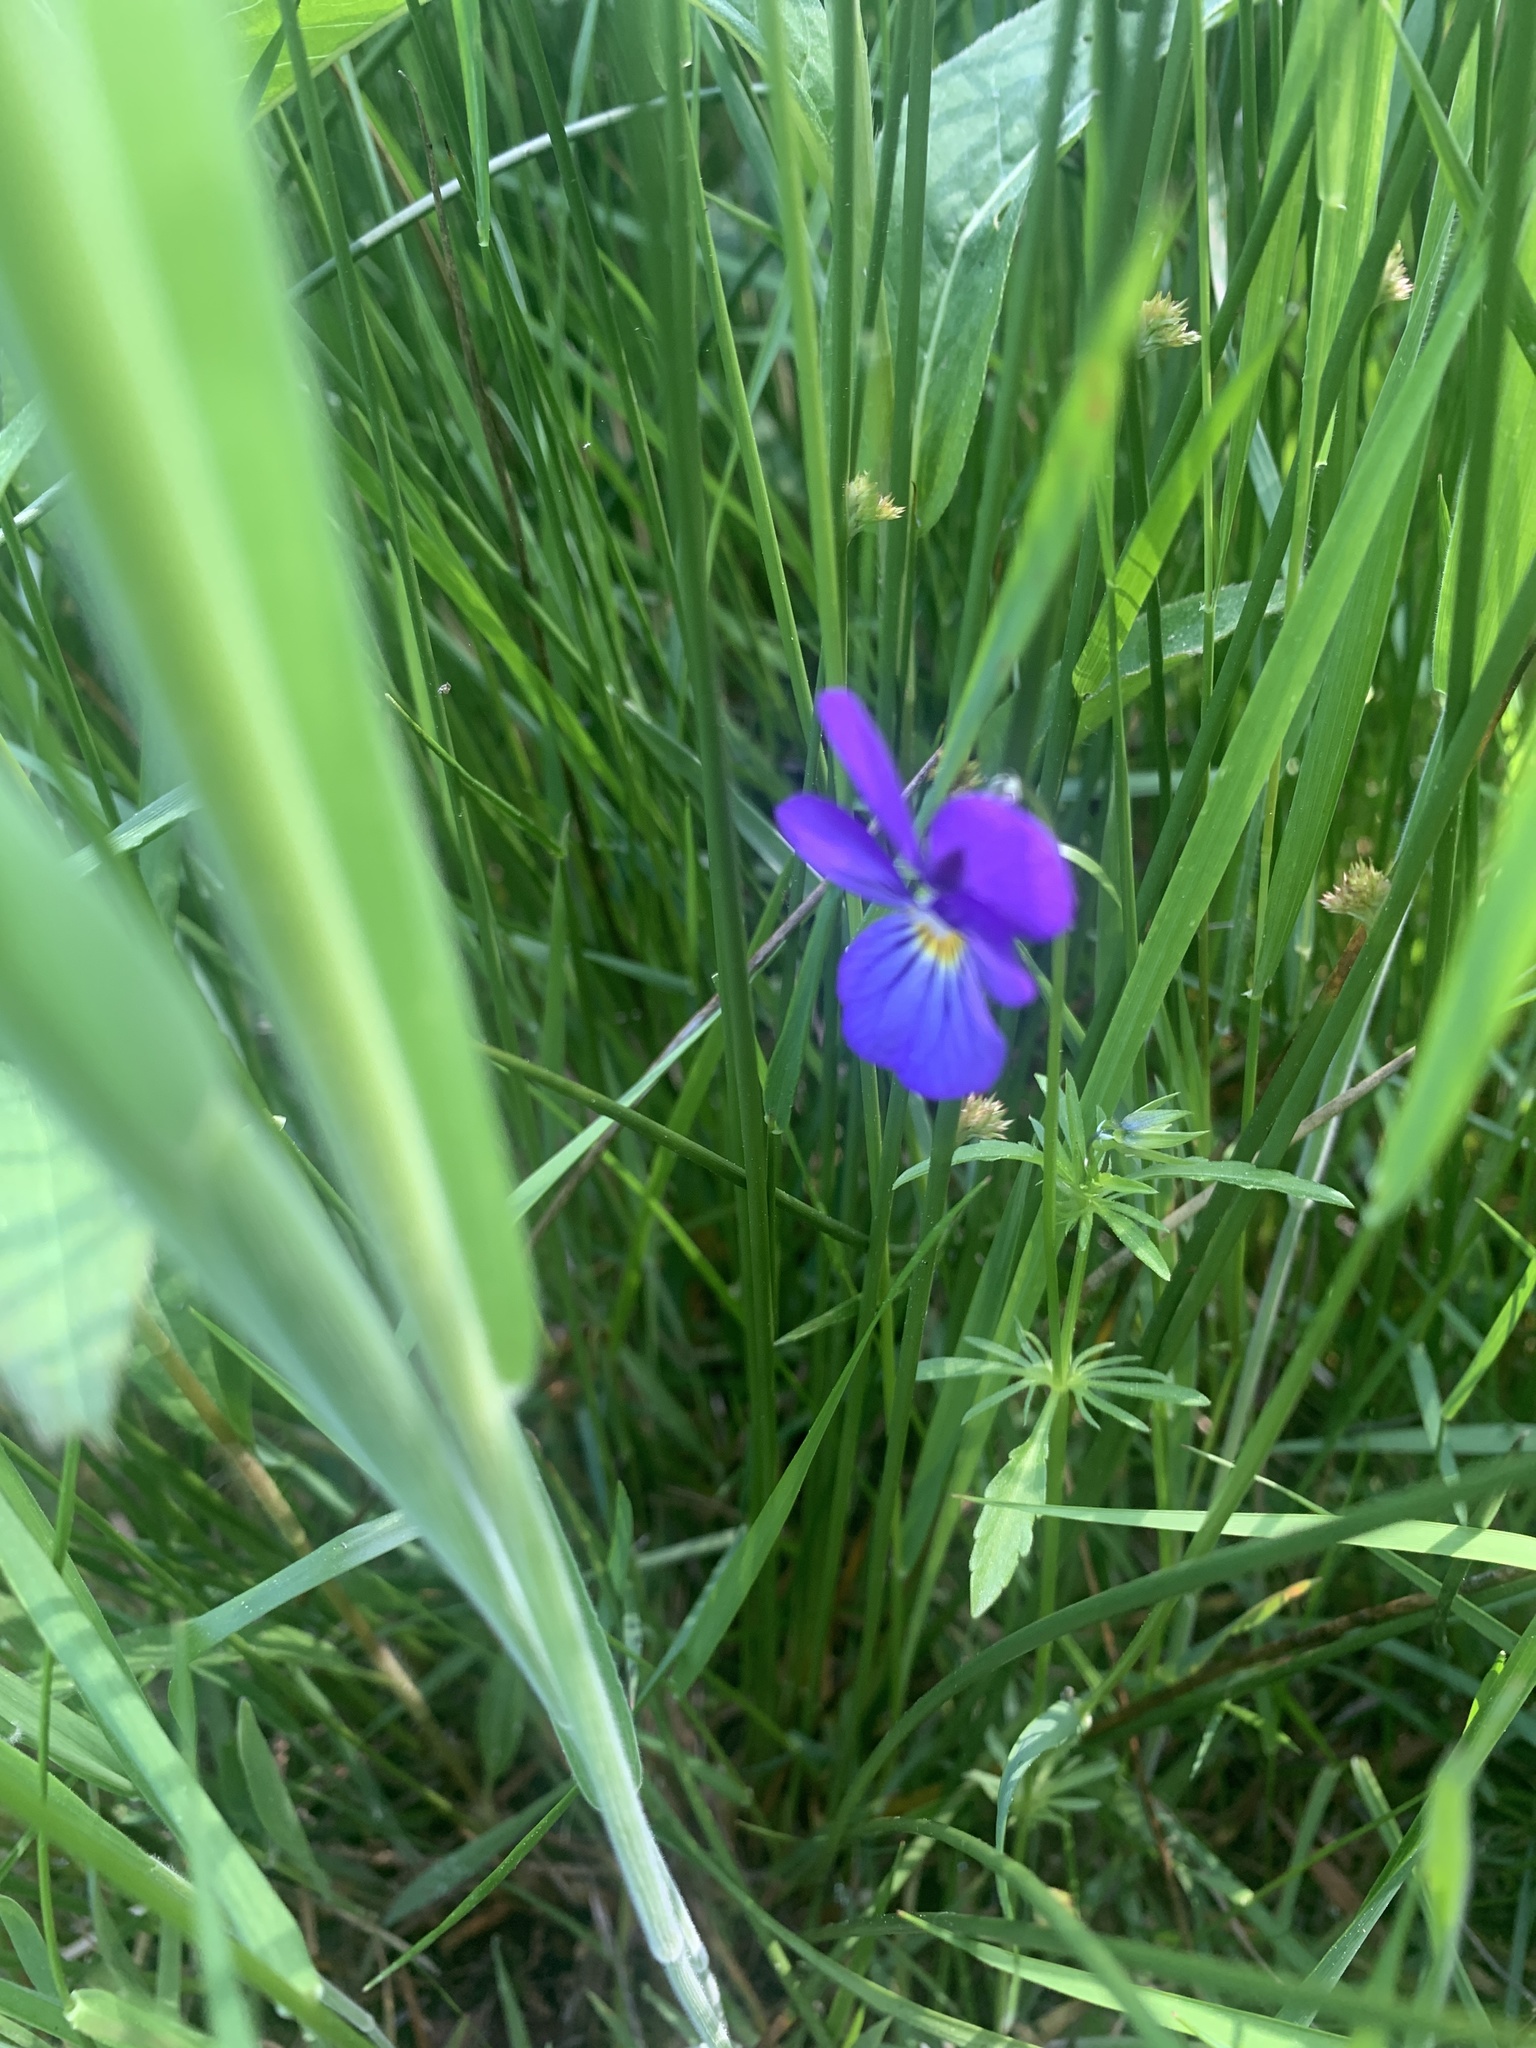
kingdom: Plantae
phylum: Tracheophyta
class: Magnoliopsida
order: Malpighiales
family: Violaceae
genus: Viola
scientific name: Viola tricolor
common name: Pansy
